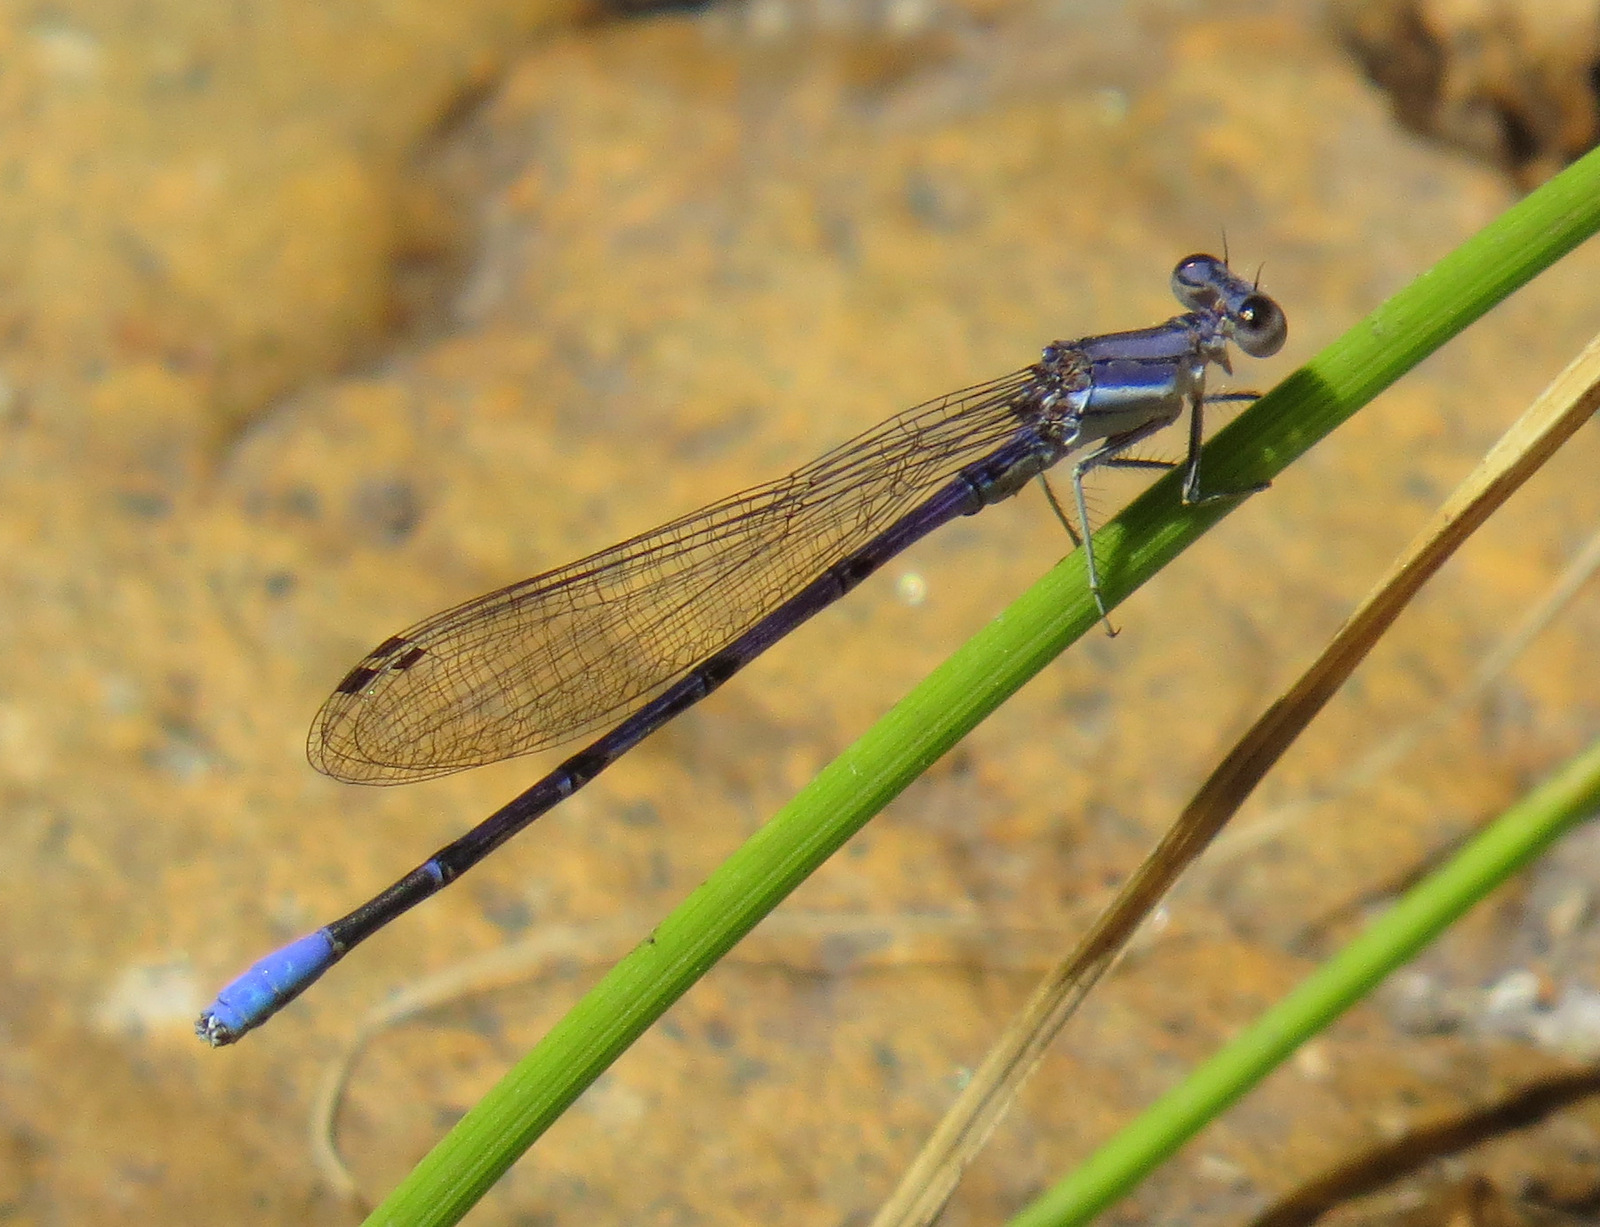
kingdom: Animalia
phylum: Arthropoda
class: Insecta
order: Odonata
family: Coenagrionidae
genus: Argia
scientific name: Argia hinei
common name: Lavender dancer
